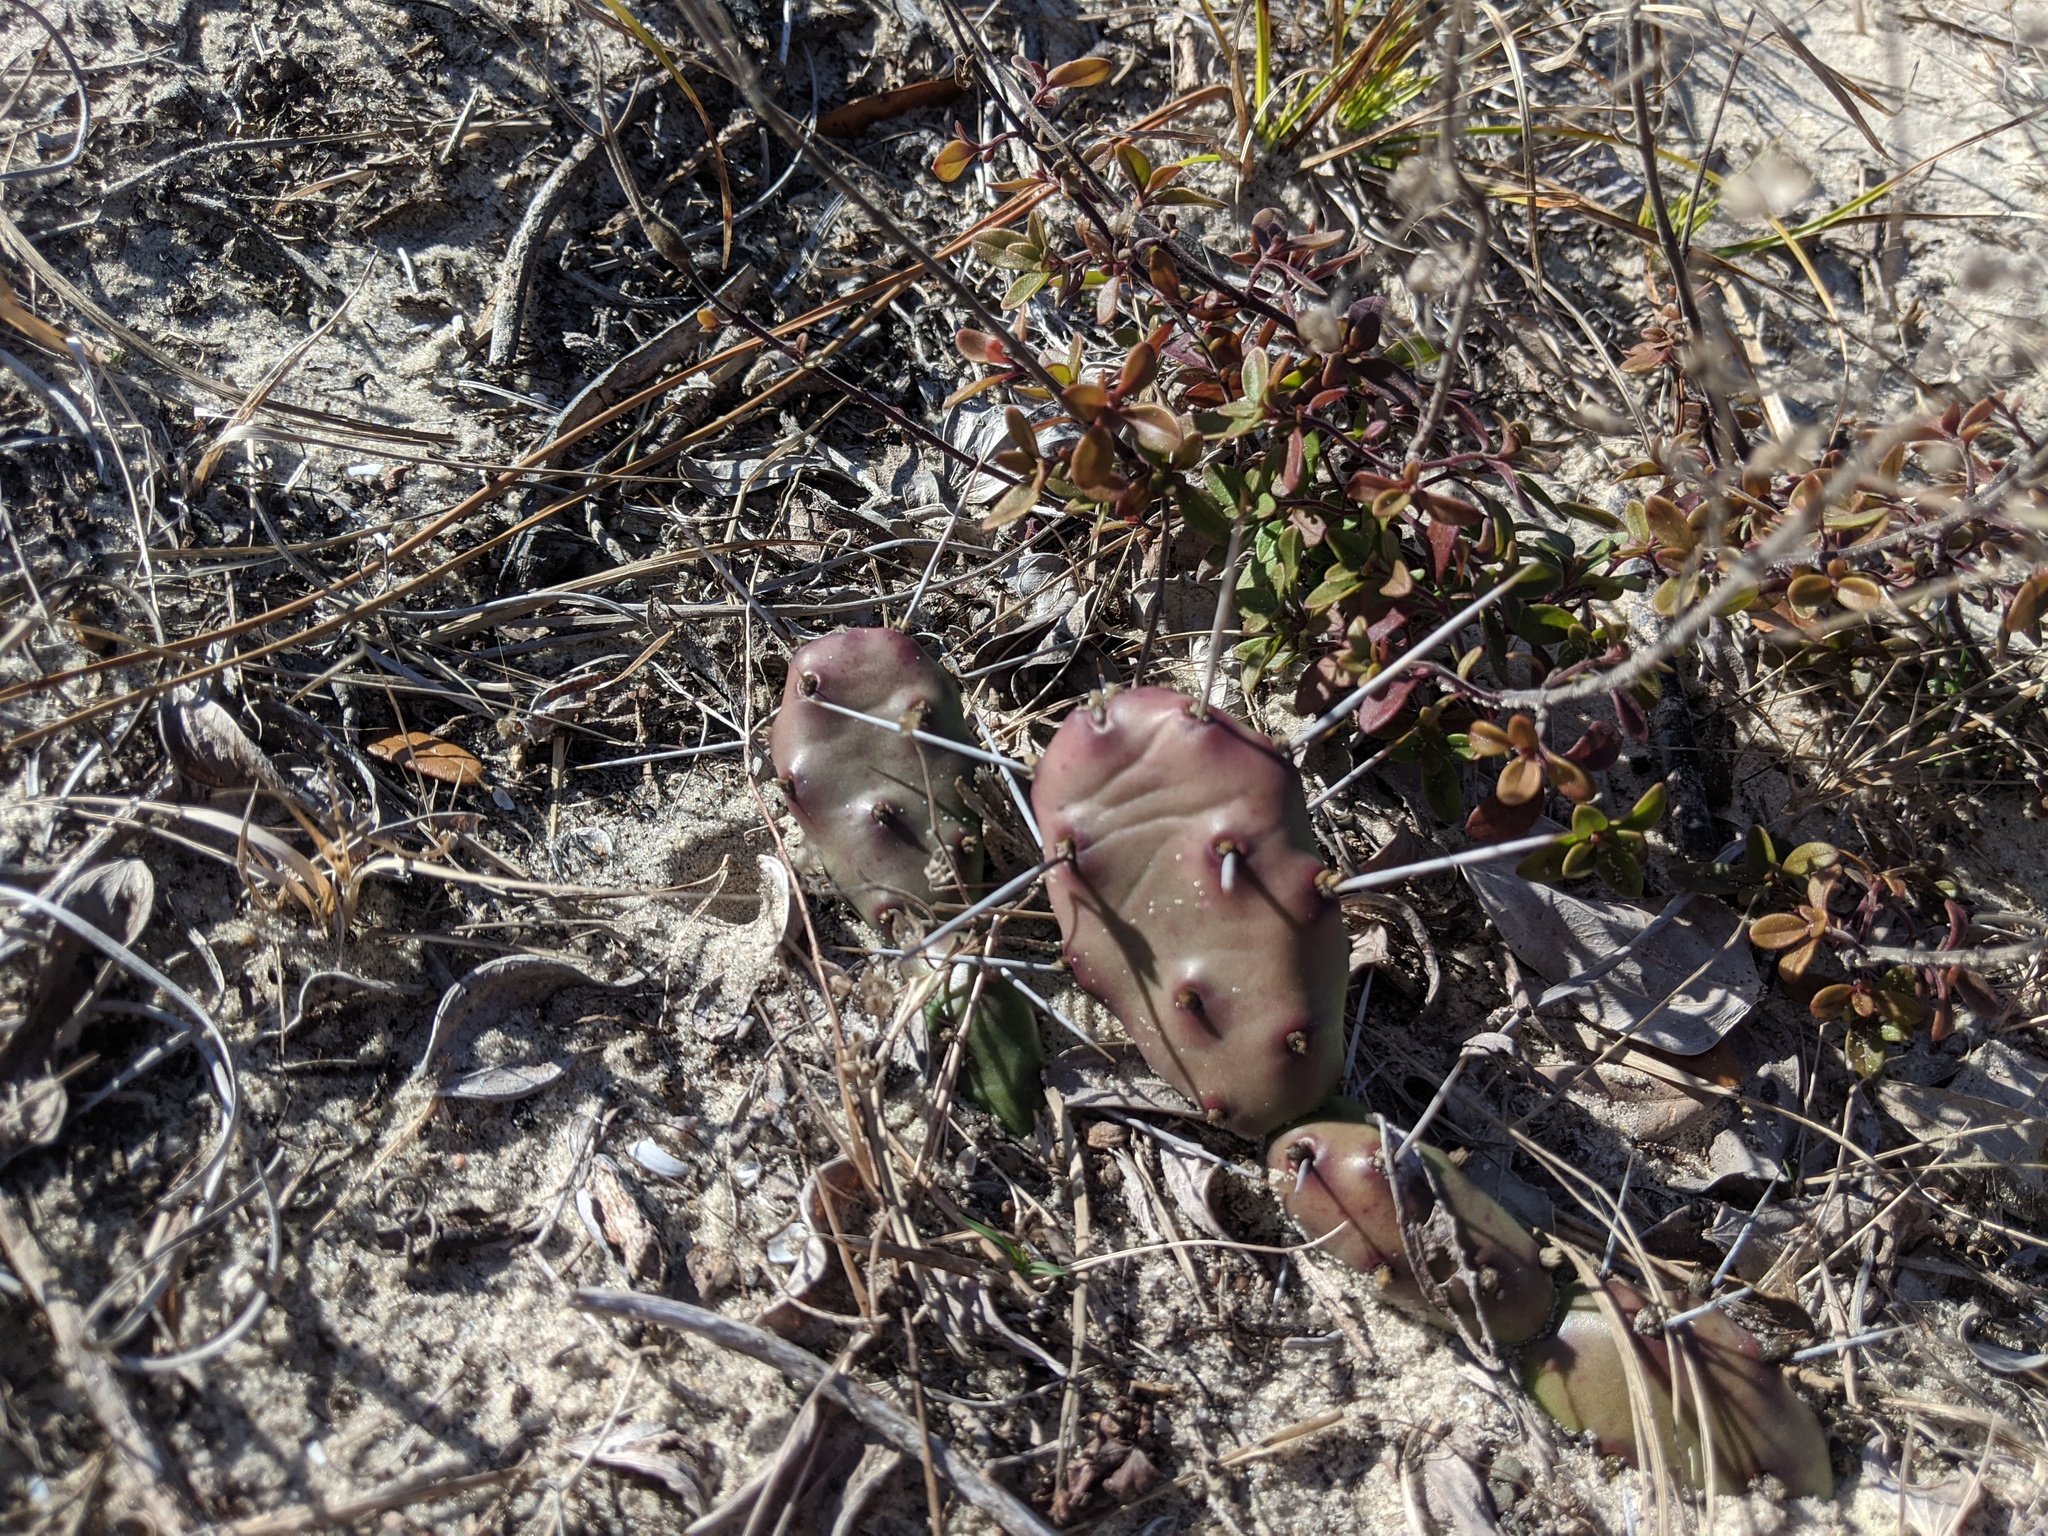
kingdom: Plantae
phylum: Tracheophyta
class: Magnoliopsida
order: Caryophyllales
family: Cactaceae
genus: Opuntia
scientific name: Opuntia drummondii
